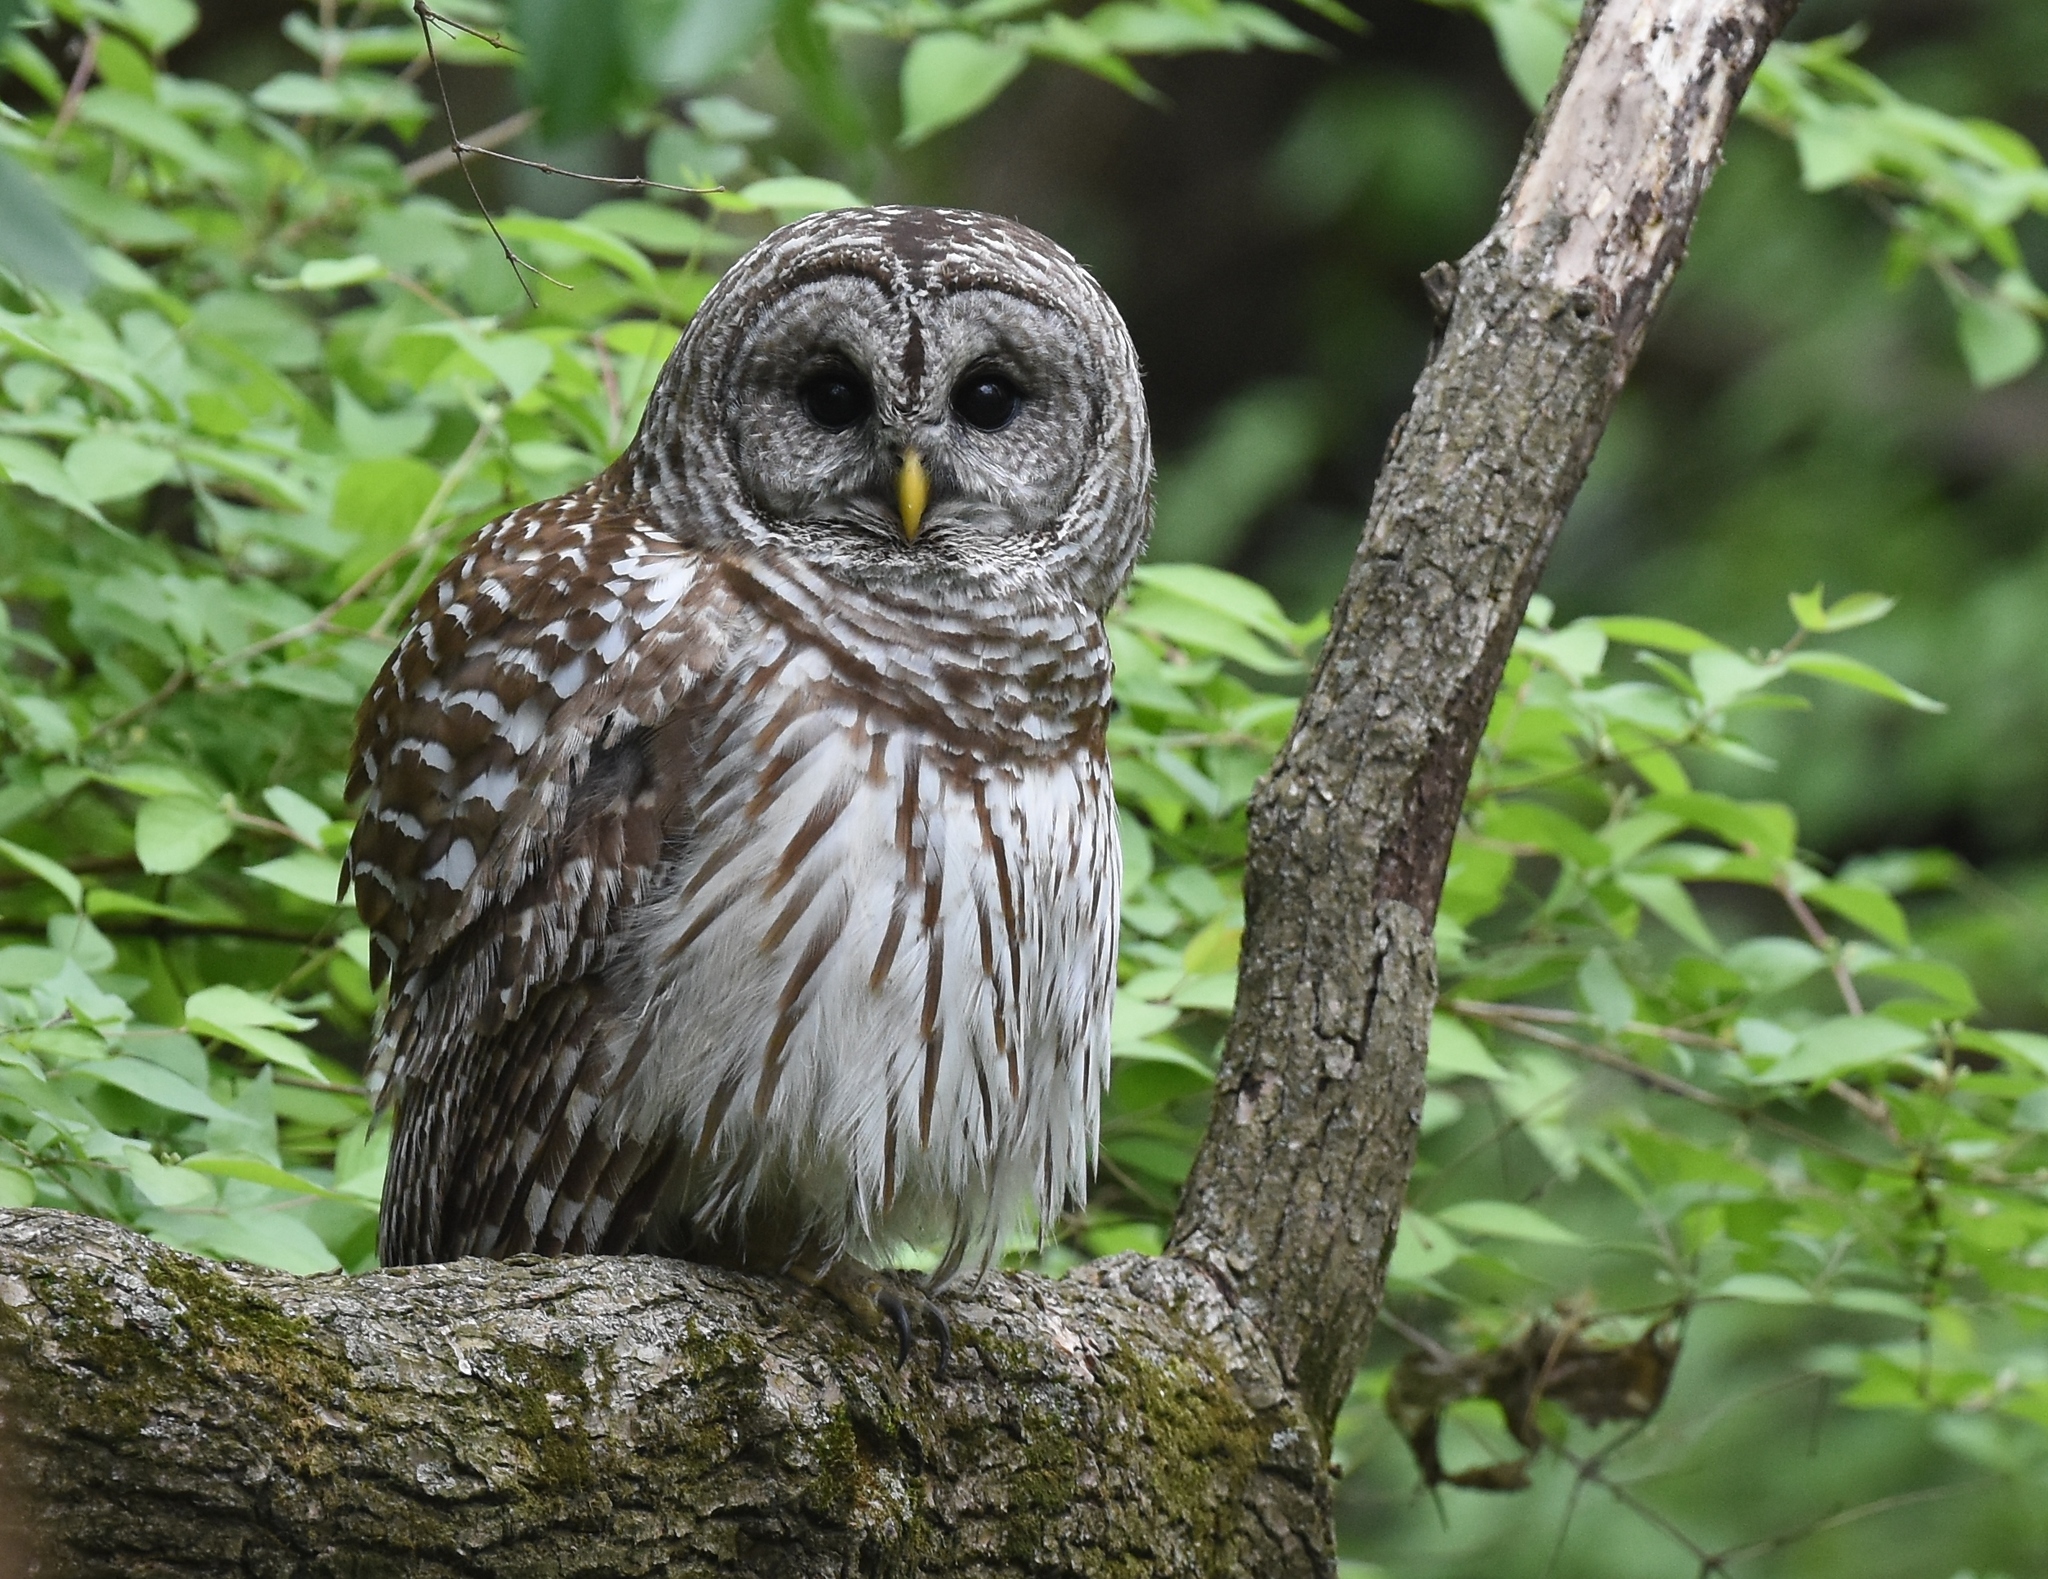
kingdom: Animalia
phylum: Chordata
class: Aves
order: Strigiformes
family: Strigidae
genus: Strix
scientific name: Strix varia
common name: Barred owl
